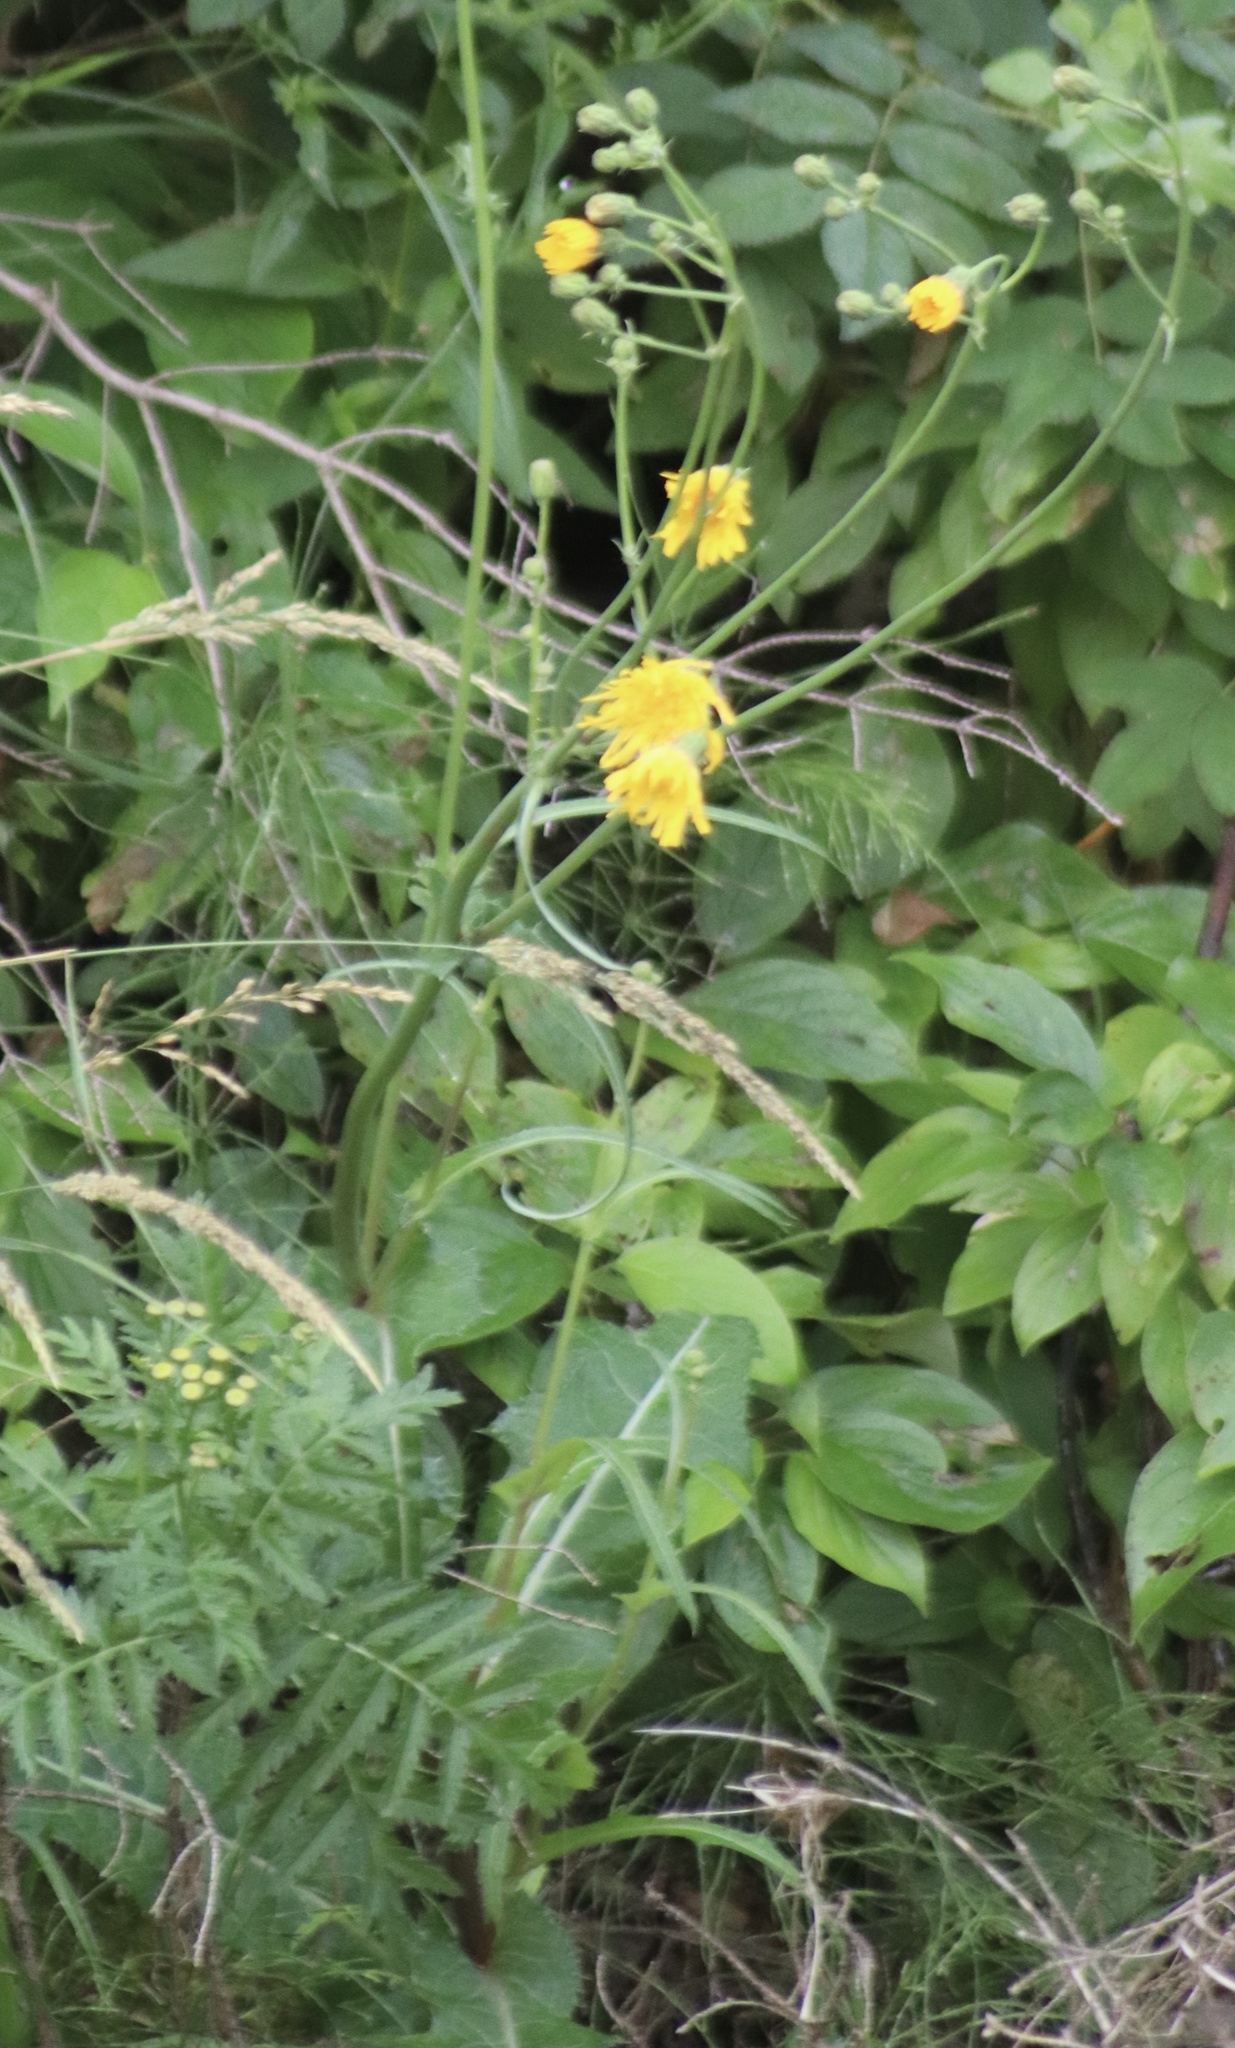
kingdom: Plantae
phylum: Tracheophyta
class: Magnoliopsida
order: Asterales
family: Asteraceae
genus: Sonchus
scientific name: Sonchus arvensis
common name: Perennial sow-thistle
